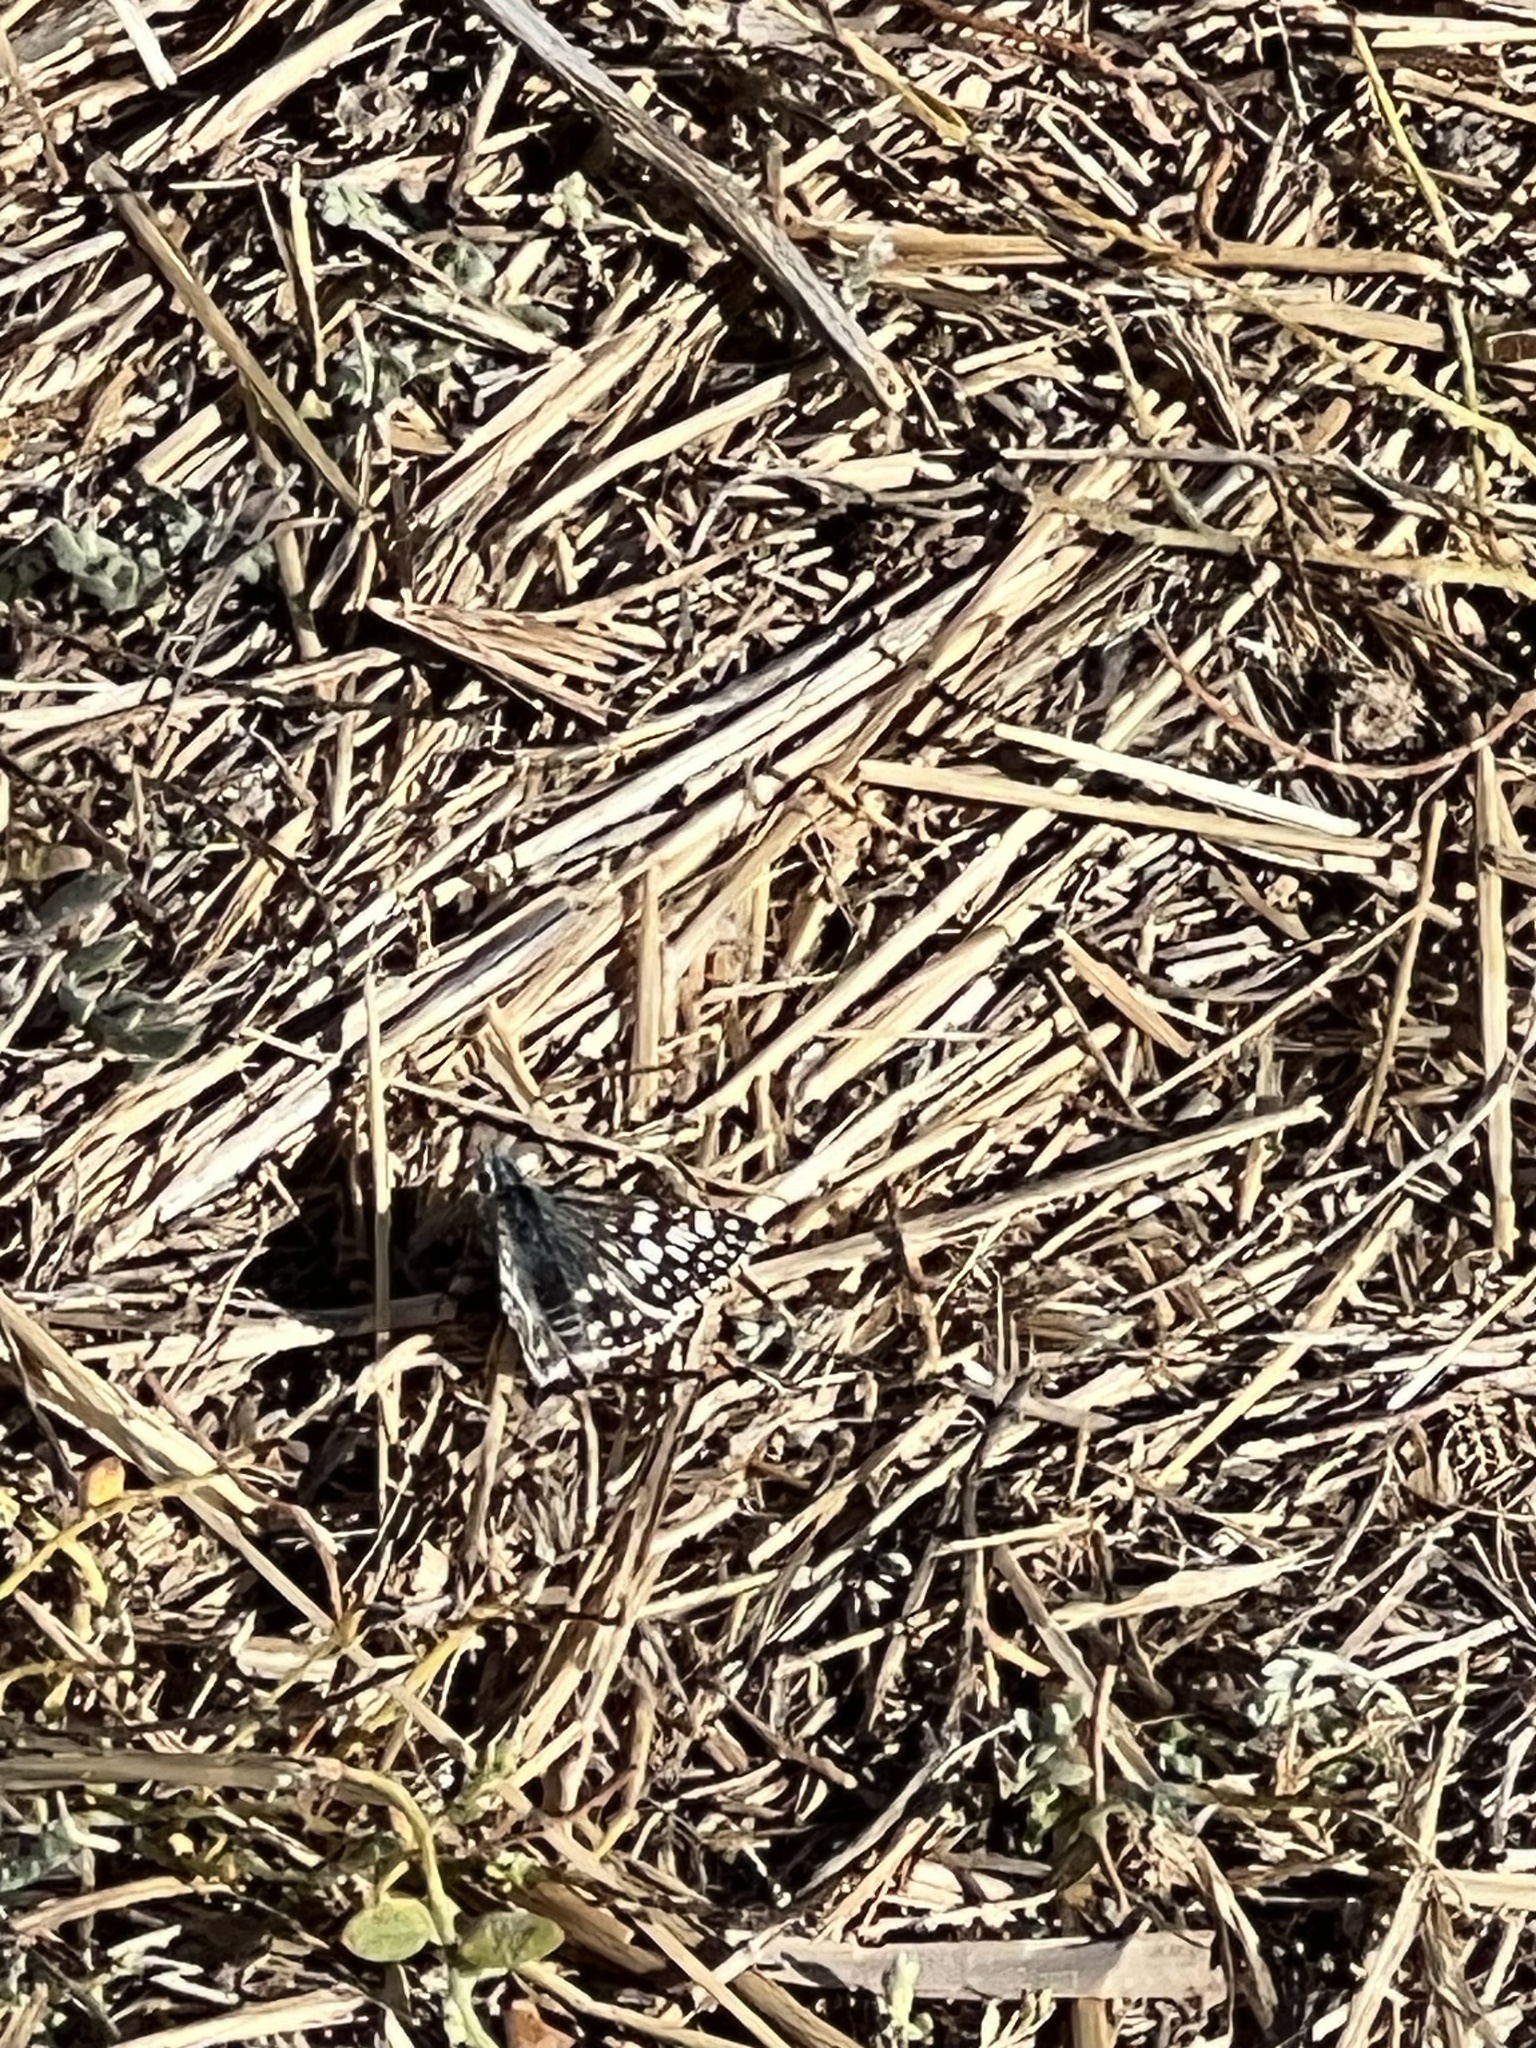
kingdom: Animalia
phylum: Arthropoda
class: Insecta
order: Lepidoptera
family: Hesperiidae
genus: Burnsius
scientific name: Burnsius albezens
